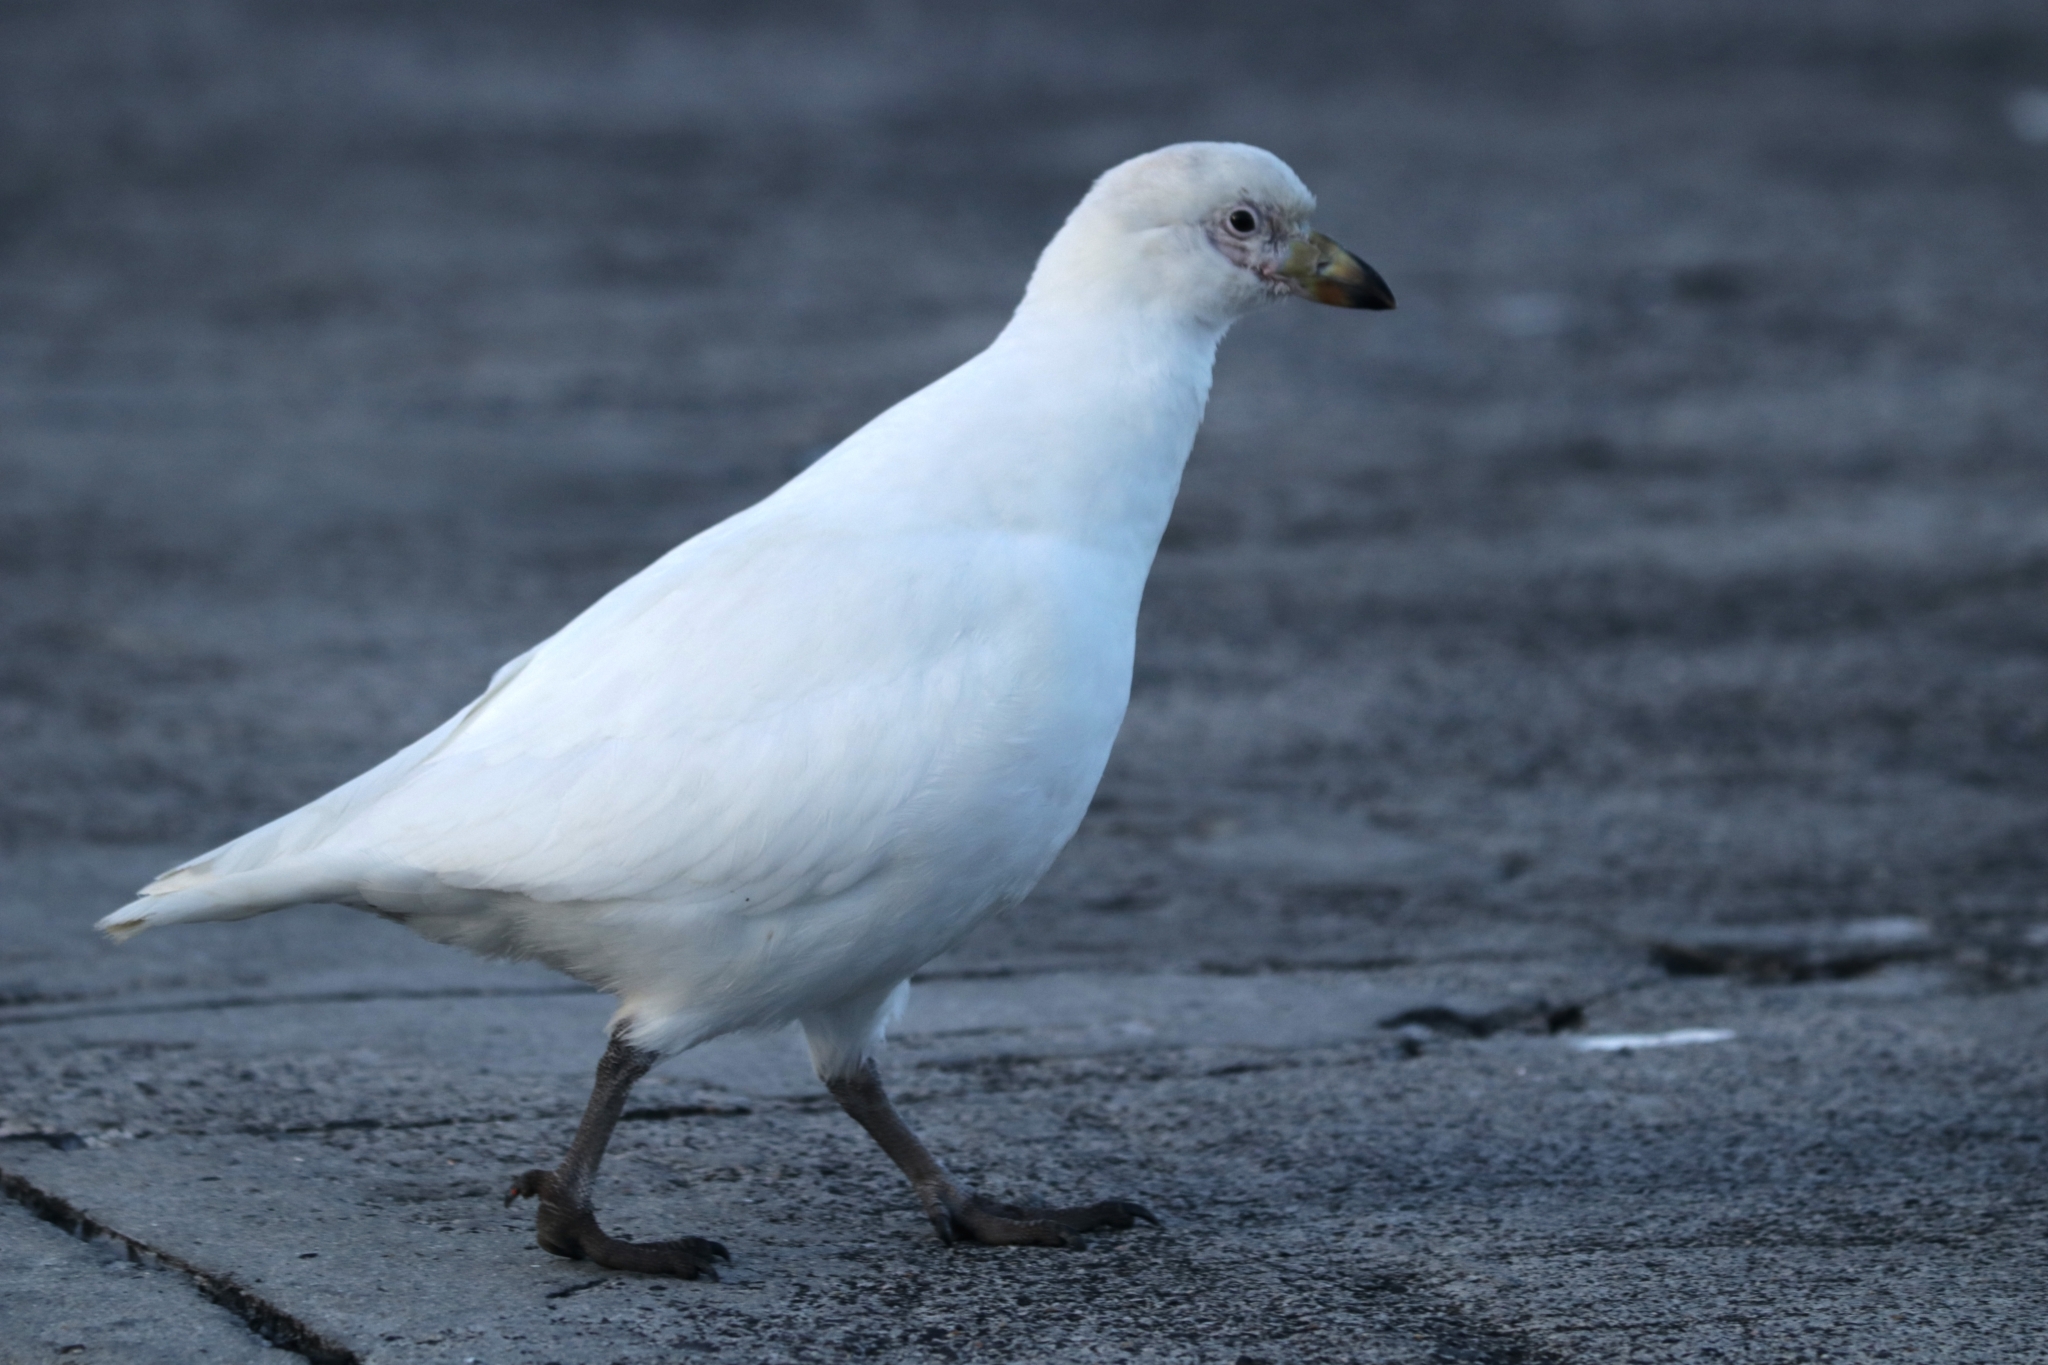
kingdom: Animalia
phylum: Chordata
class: Aves
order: Charadriiformes
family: Chionidae
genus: Chionis
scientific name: Chionis albus
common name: Snowy sheathbill
